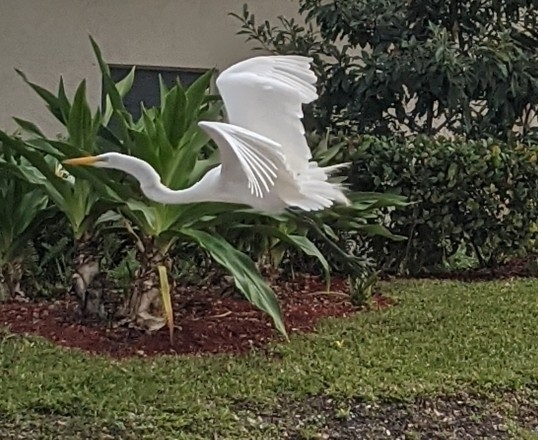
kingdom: Animalia
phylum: Chordata
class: Aves
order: Pelecaniformes
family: Ardeidae
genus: Ardea
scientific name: Ardea alba
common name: Great egret
